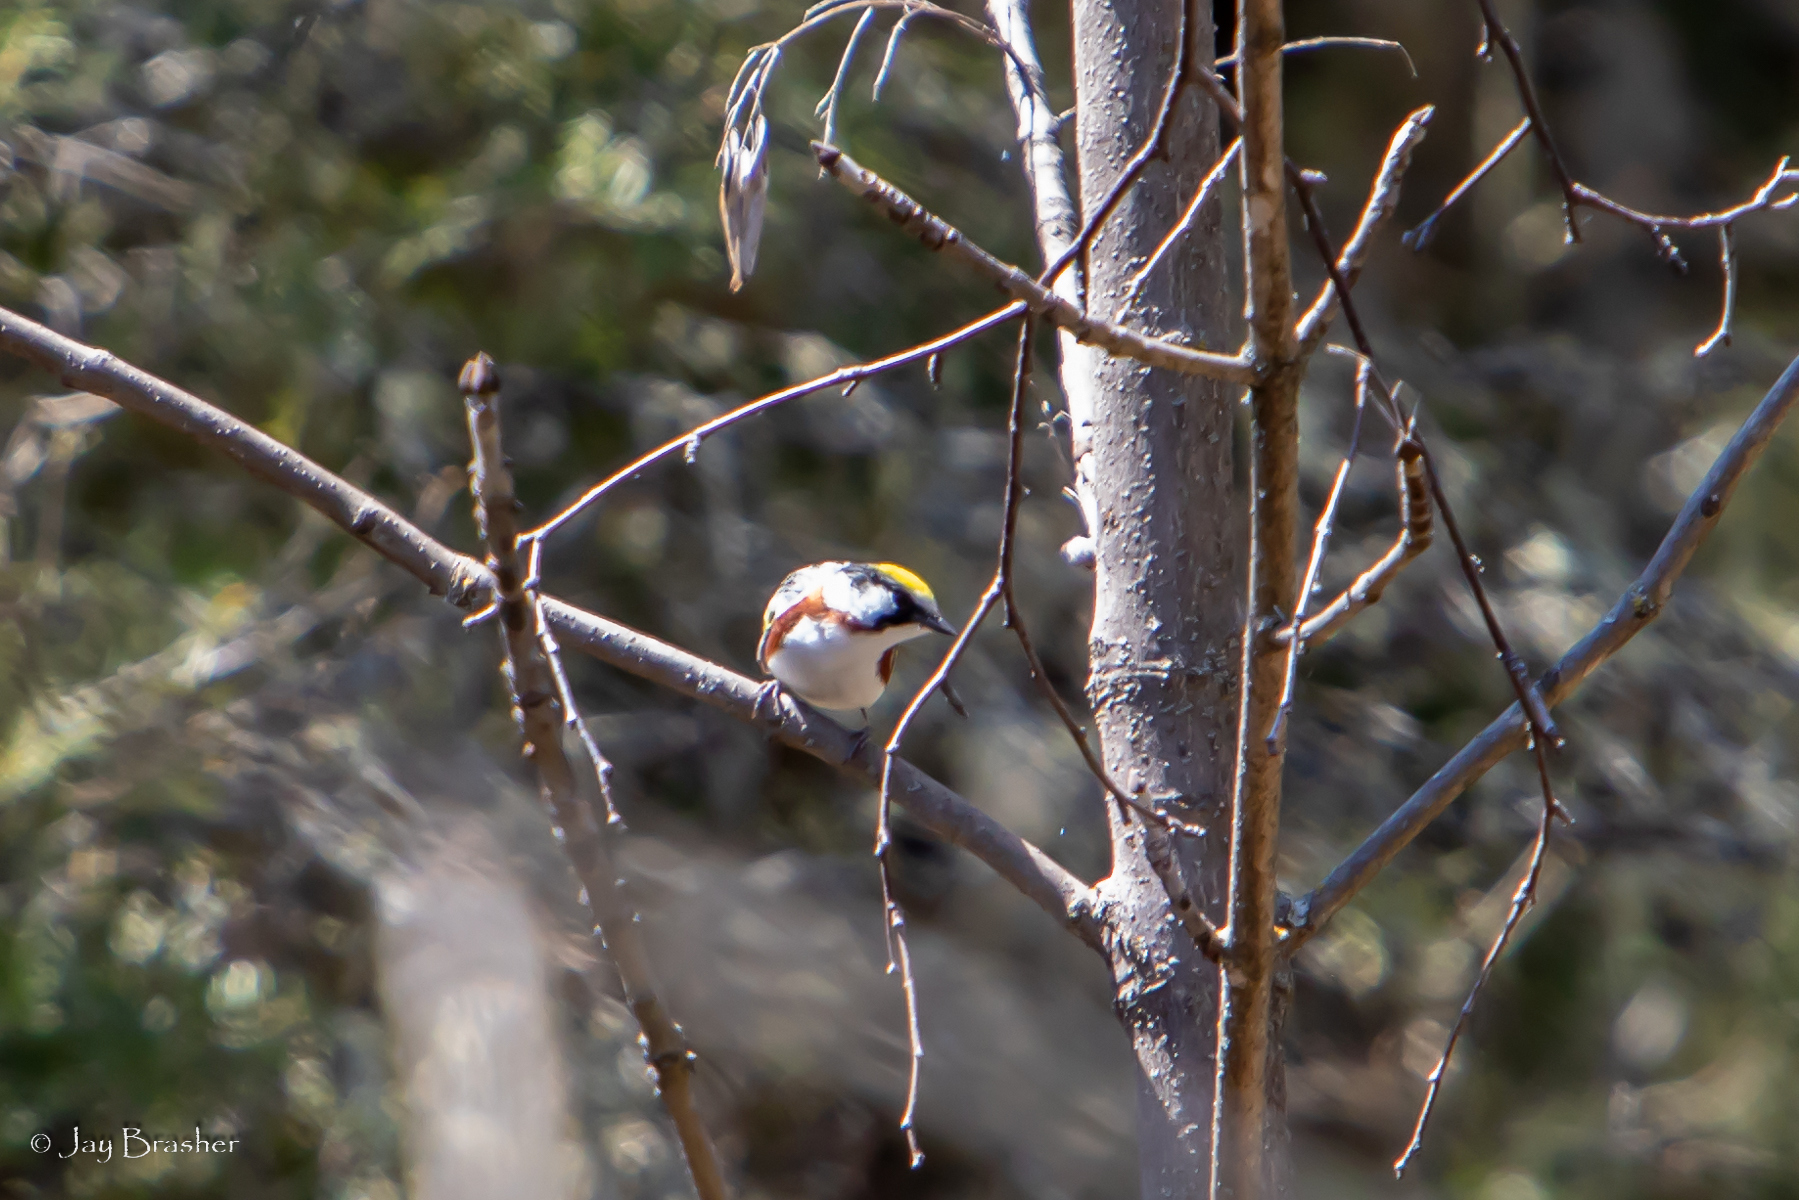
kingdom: Animalia
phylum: Chordata
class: Aves
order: Passeriformes
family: Parulidae
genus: Setophaga
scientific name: Setophaga pensylvanica
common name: Chestnut-sided warbler
